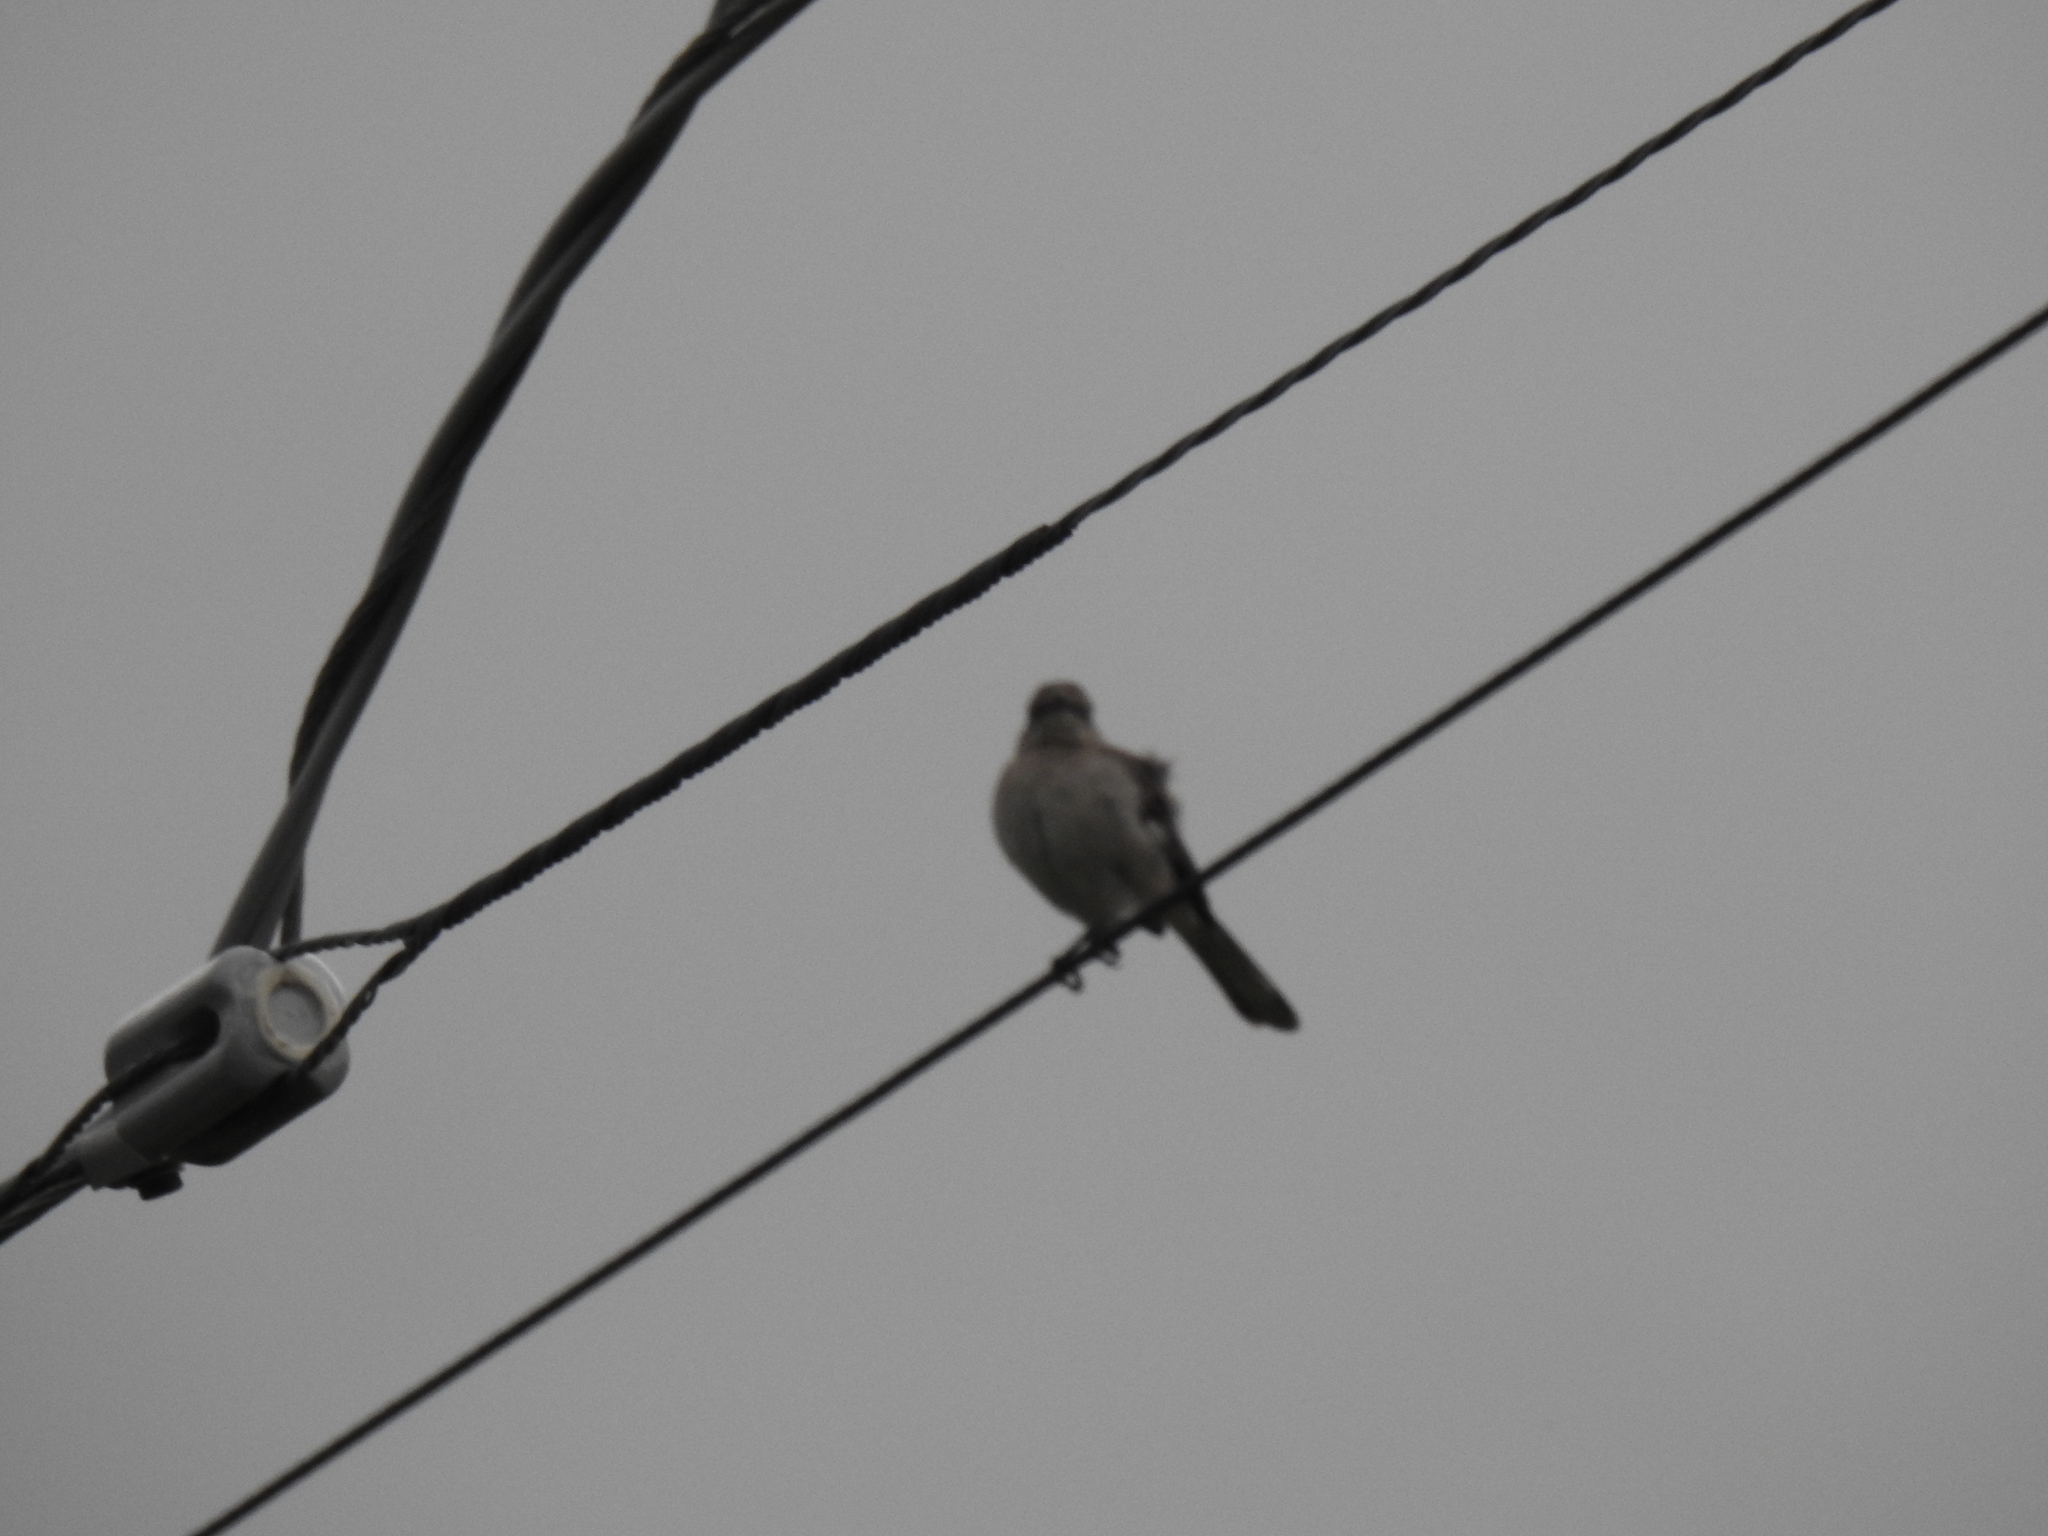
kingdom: Animalia
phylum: Chordata
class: Aves
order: Passeriformes
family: Mimidae
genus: Mimus
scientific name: Mimus polyglottos
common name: Northern mockingbird
